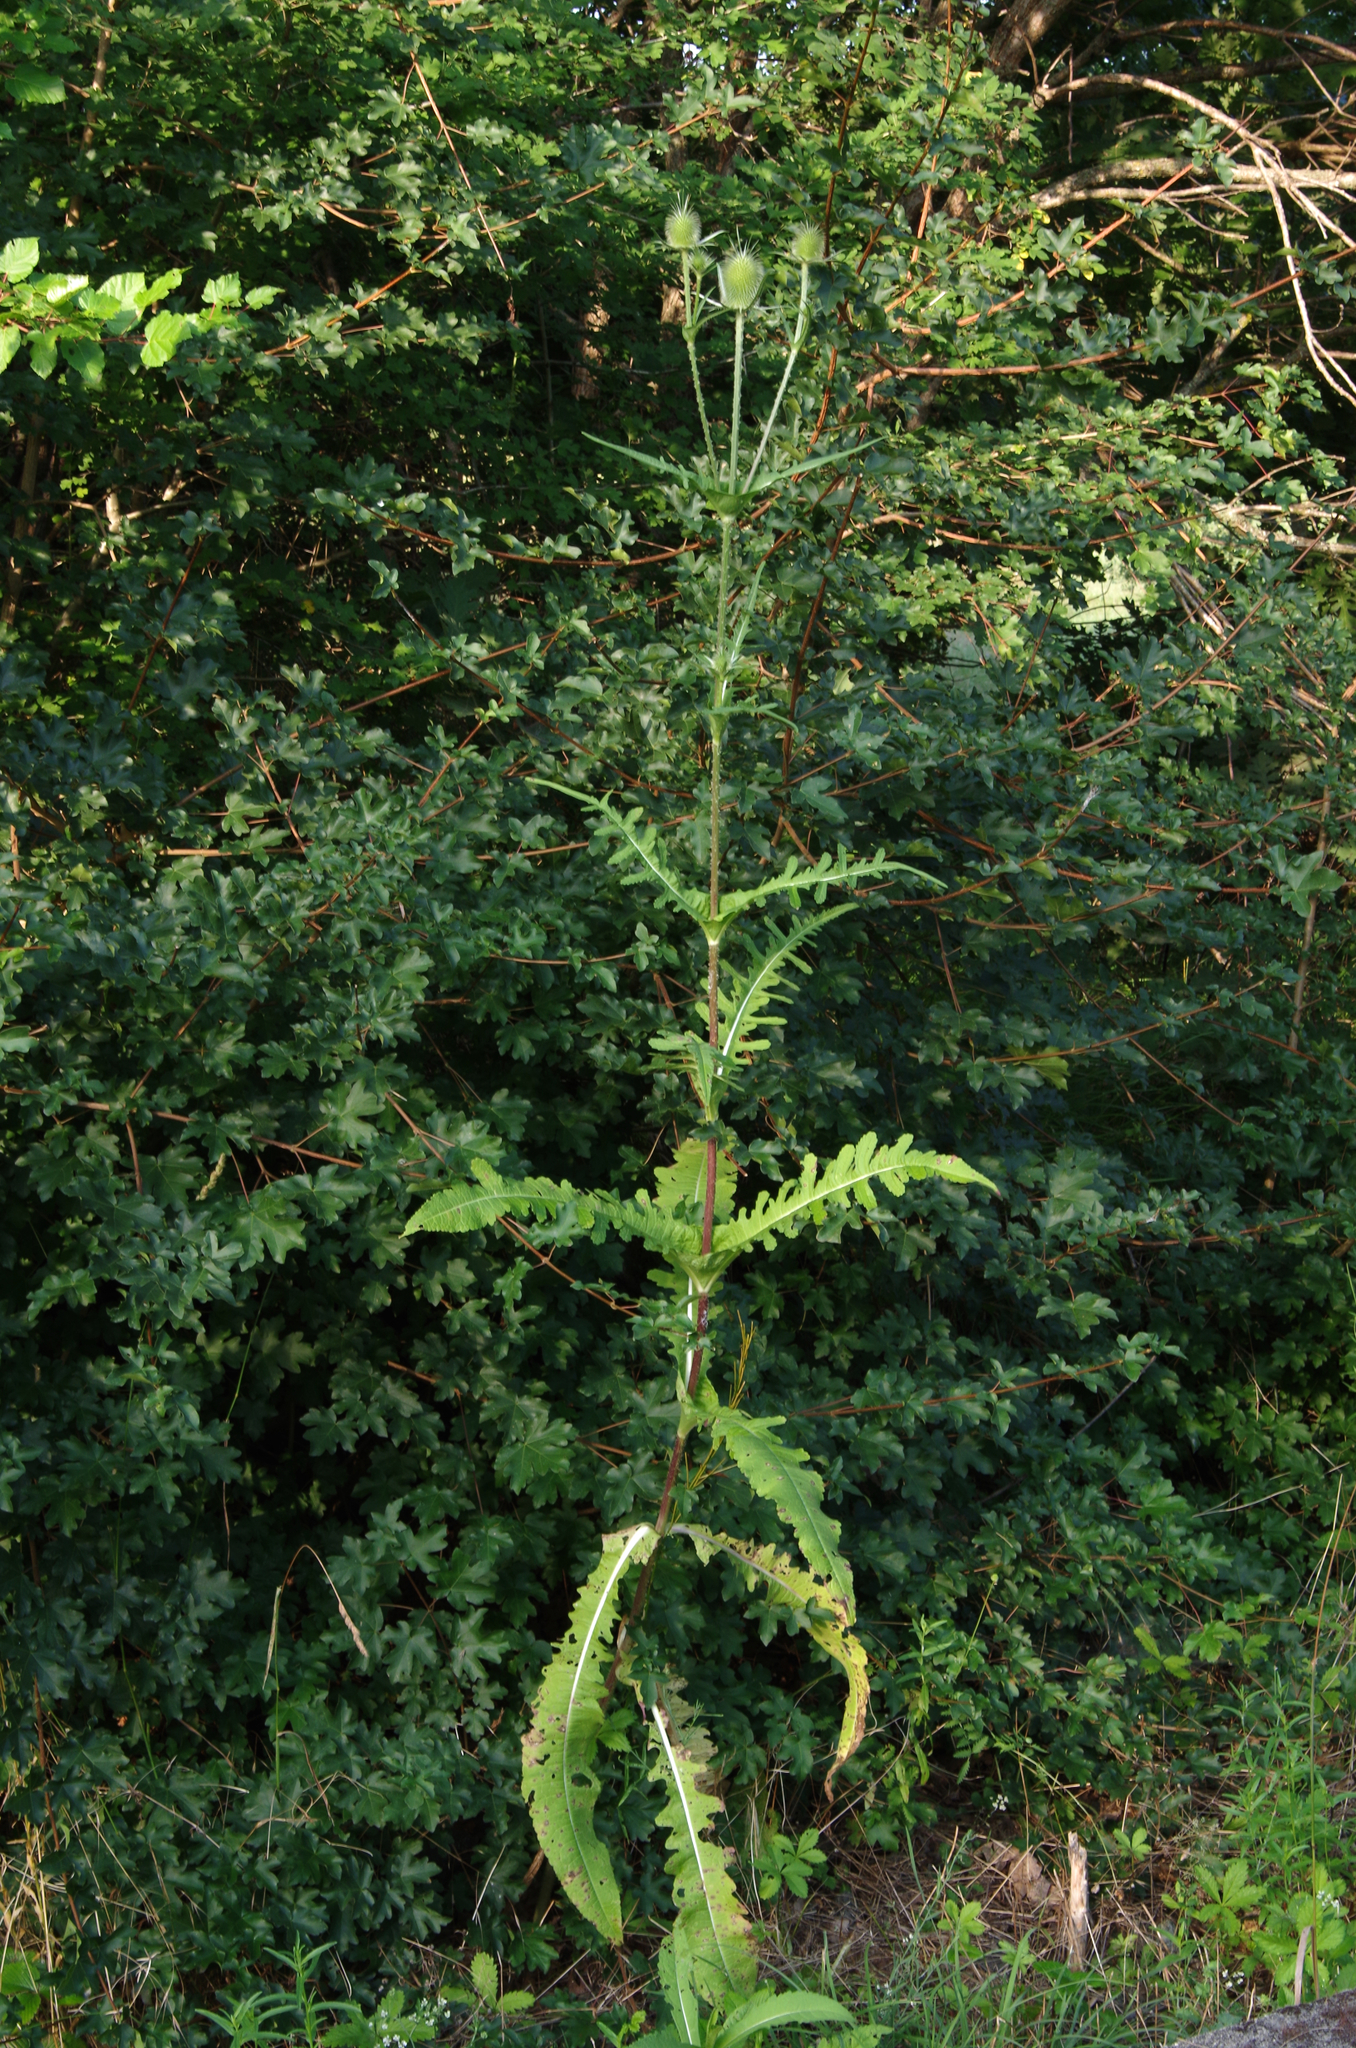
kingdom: Plantae
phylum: Tracheophyta
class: Magnoliopsida
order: Dipsacales
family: Caprifoliaceae
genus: Dipsacus
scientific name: Dipsacus laciniatus
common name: Cut-leaved teasel
